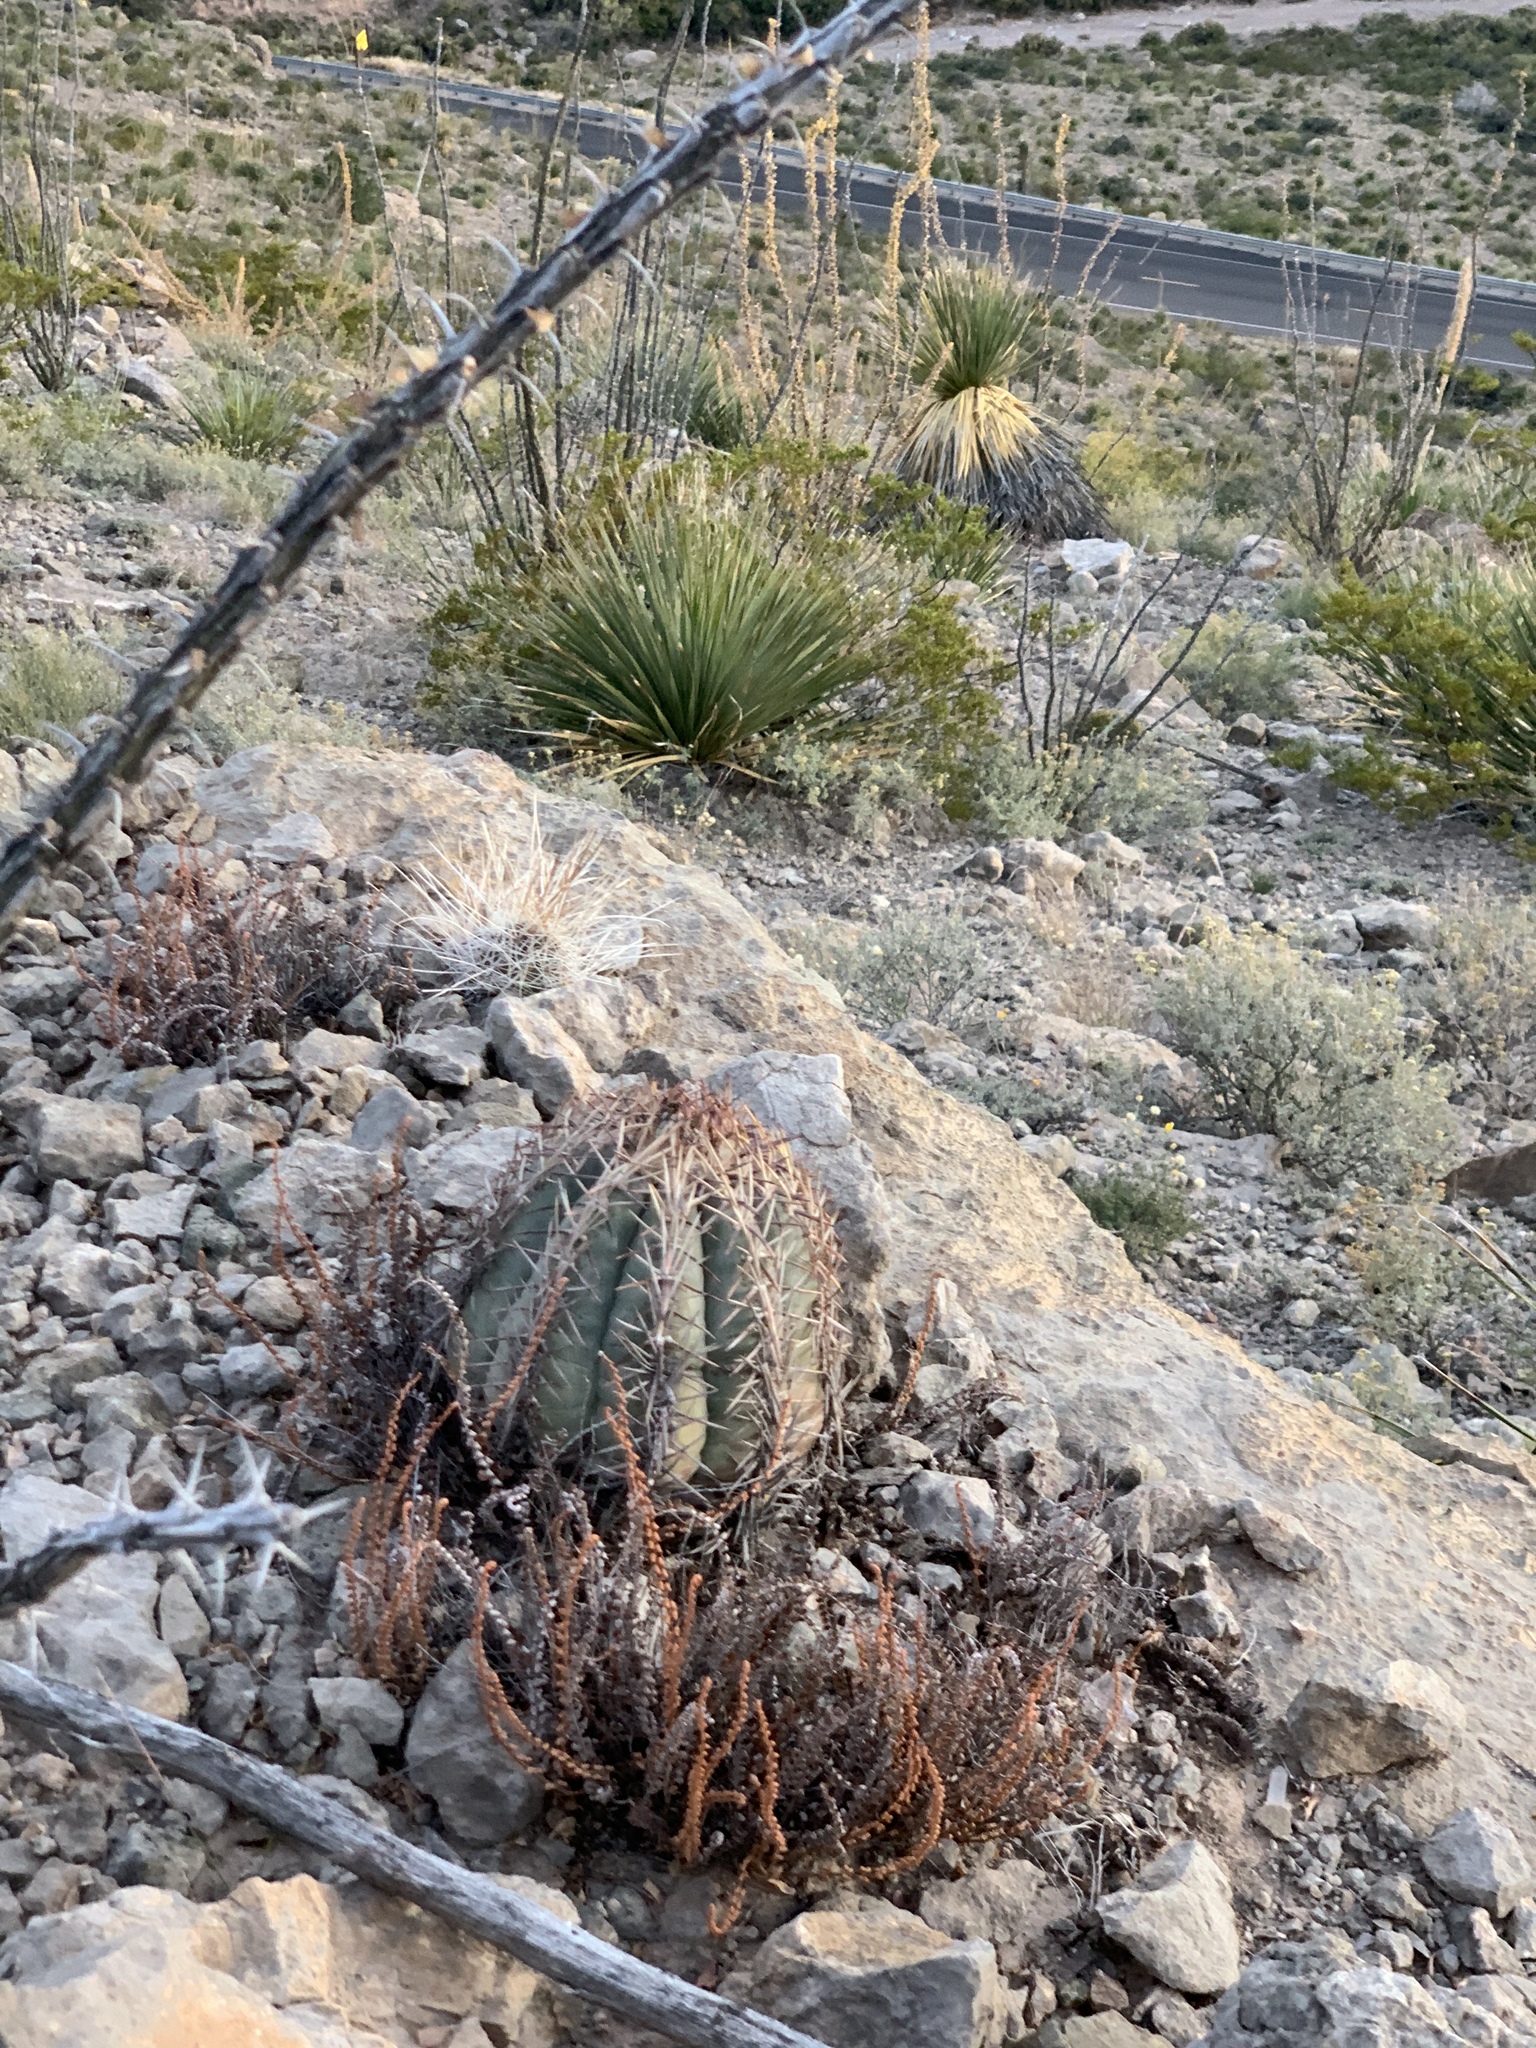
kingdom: Plantae
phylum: Tracheophyta
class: Magnoliopsida
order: Caryophyllales
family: Cactaceae
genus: Echinocactus
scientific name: Echinocactus horizonthalonius
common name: Devilshead
